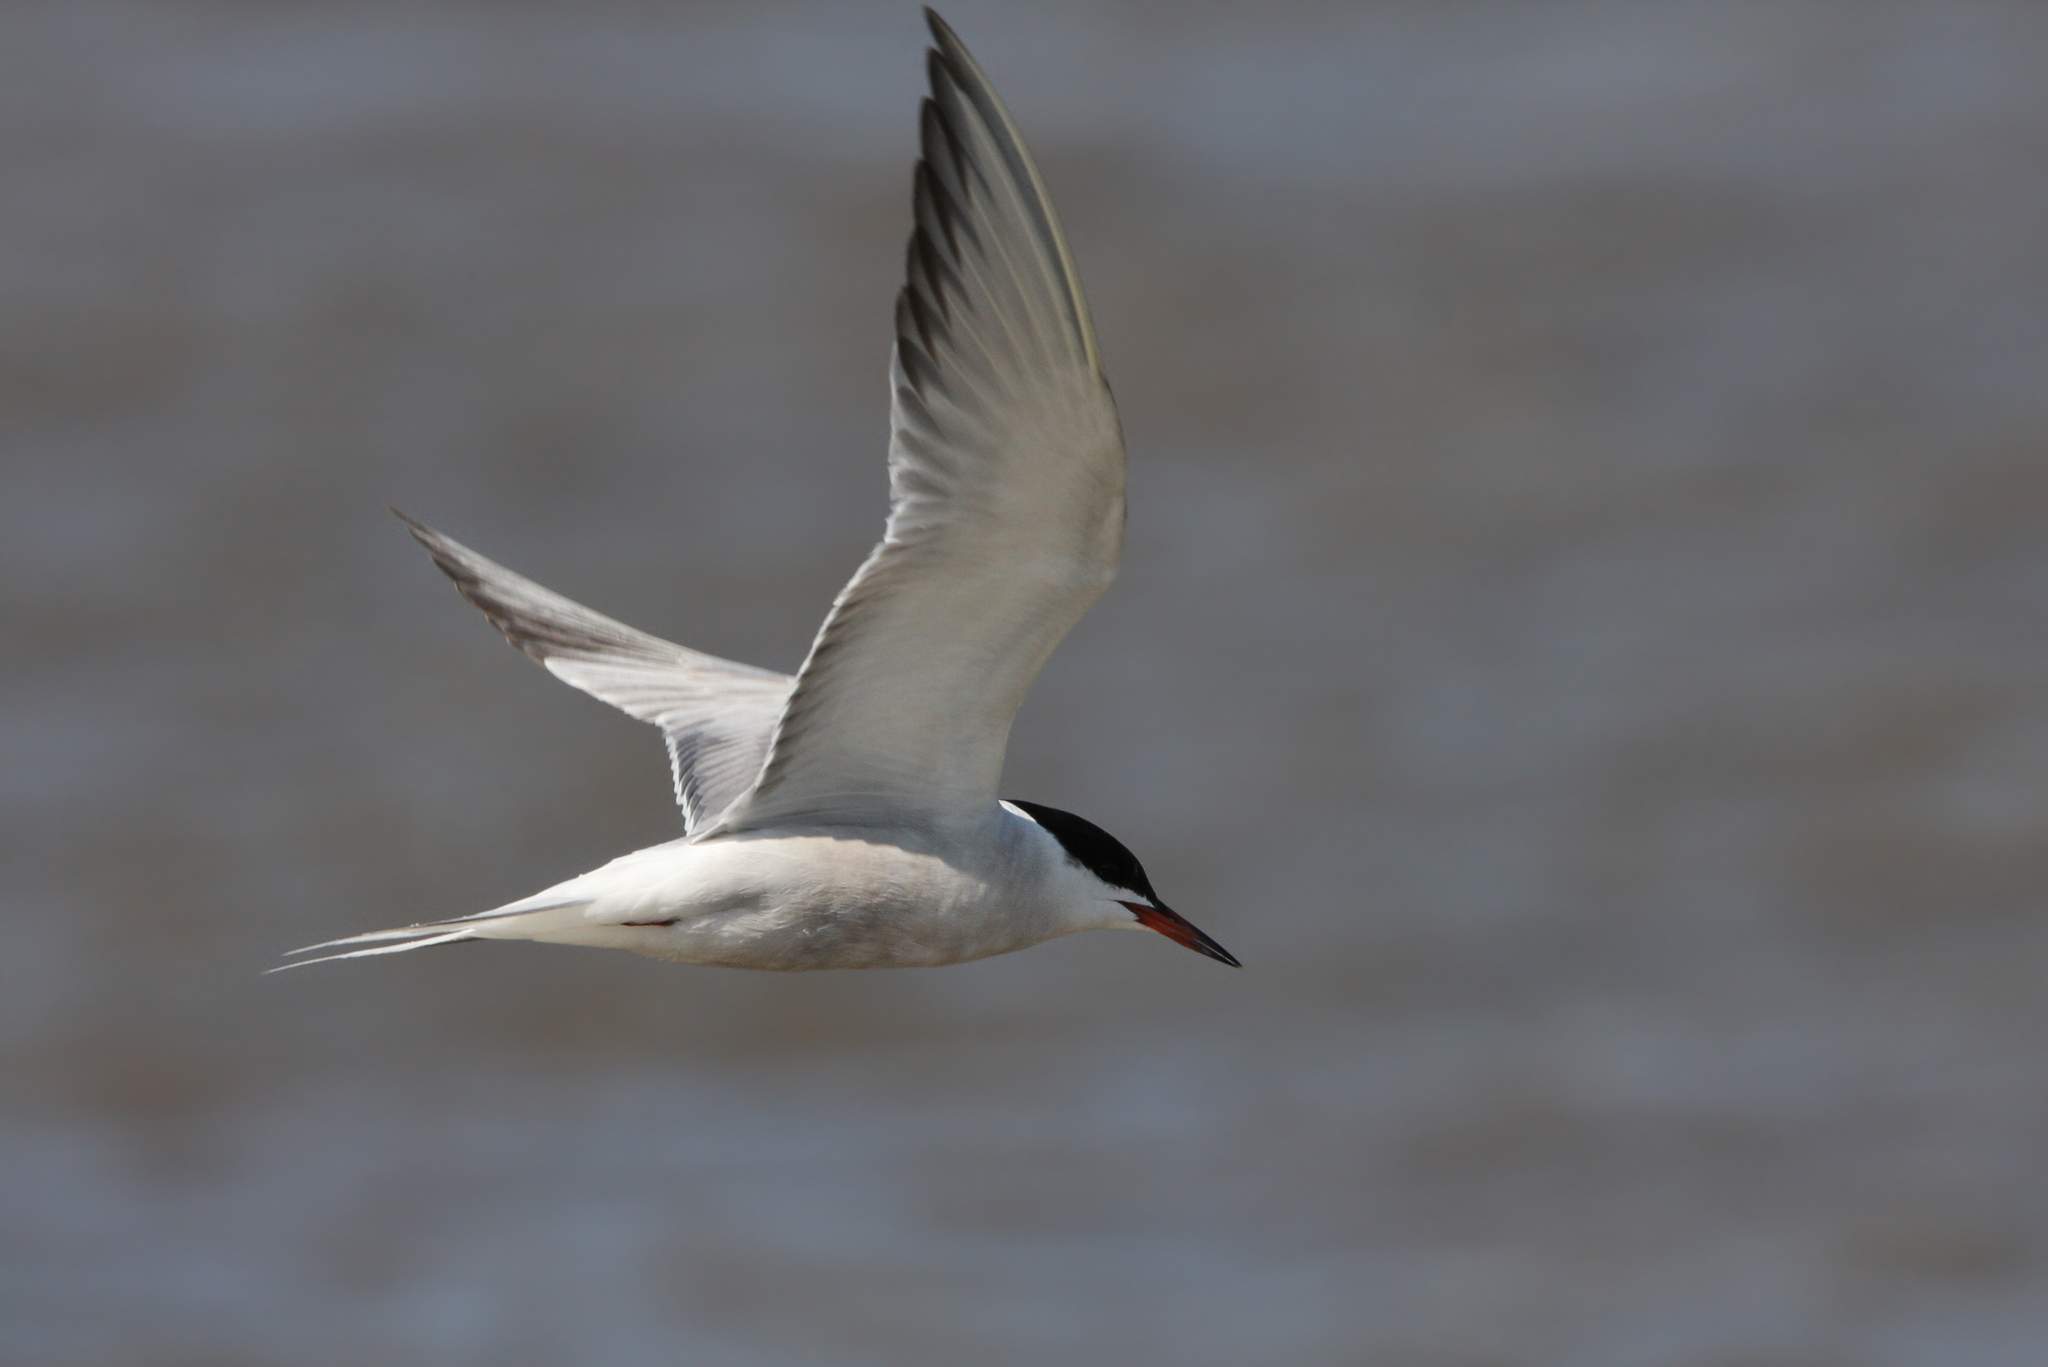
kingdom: Animalia
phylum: Chordata
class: Aves
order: Charadriiformes
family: Laridae
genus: Sterna
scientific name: Sterna hirundo
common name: Common tern
